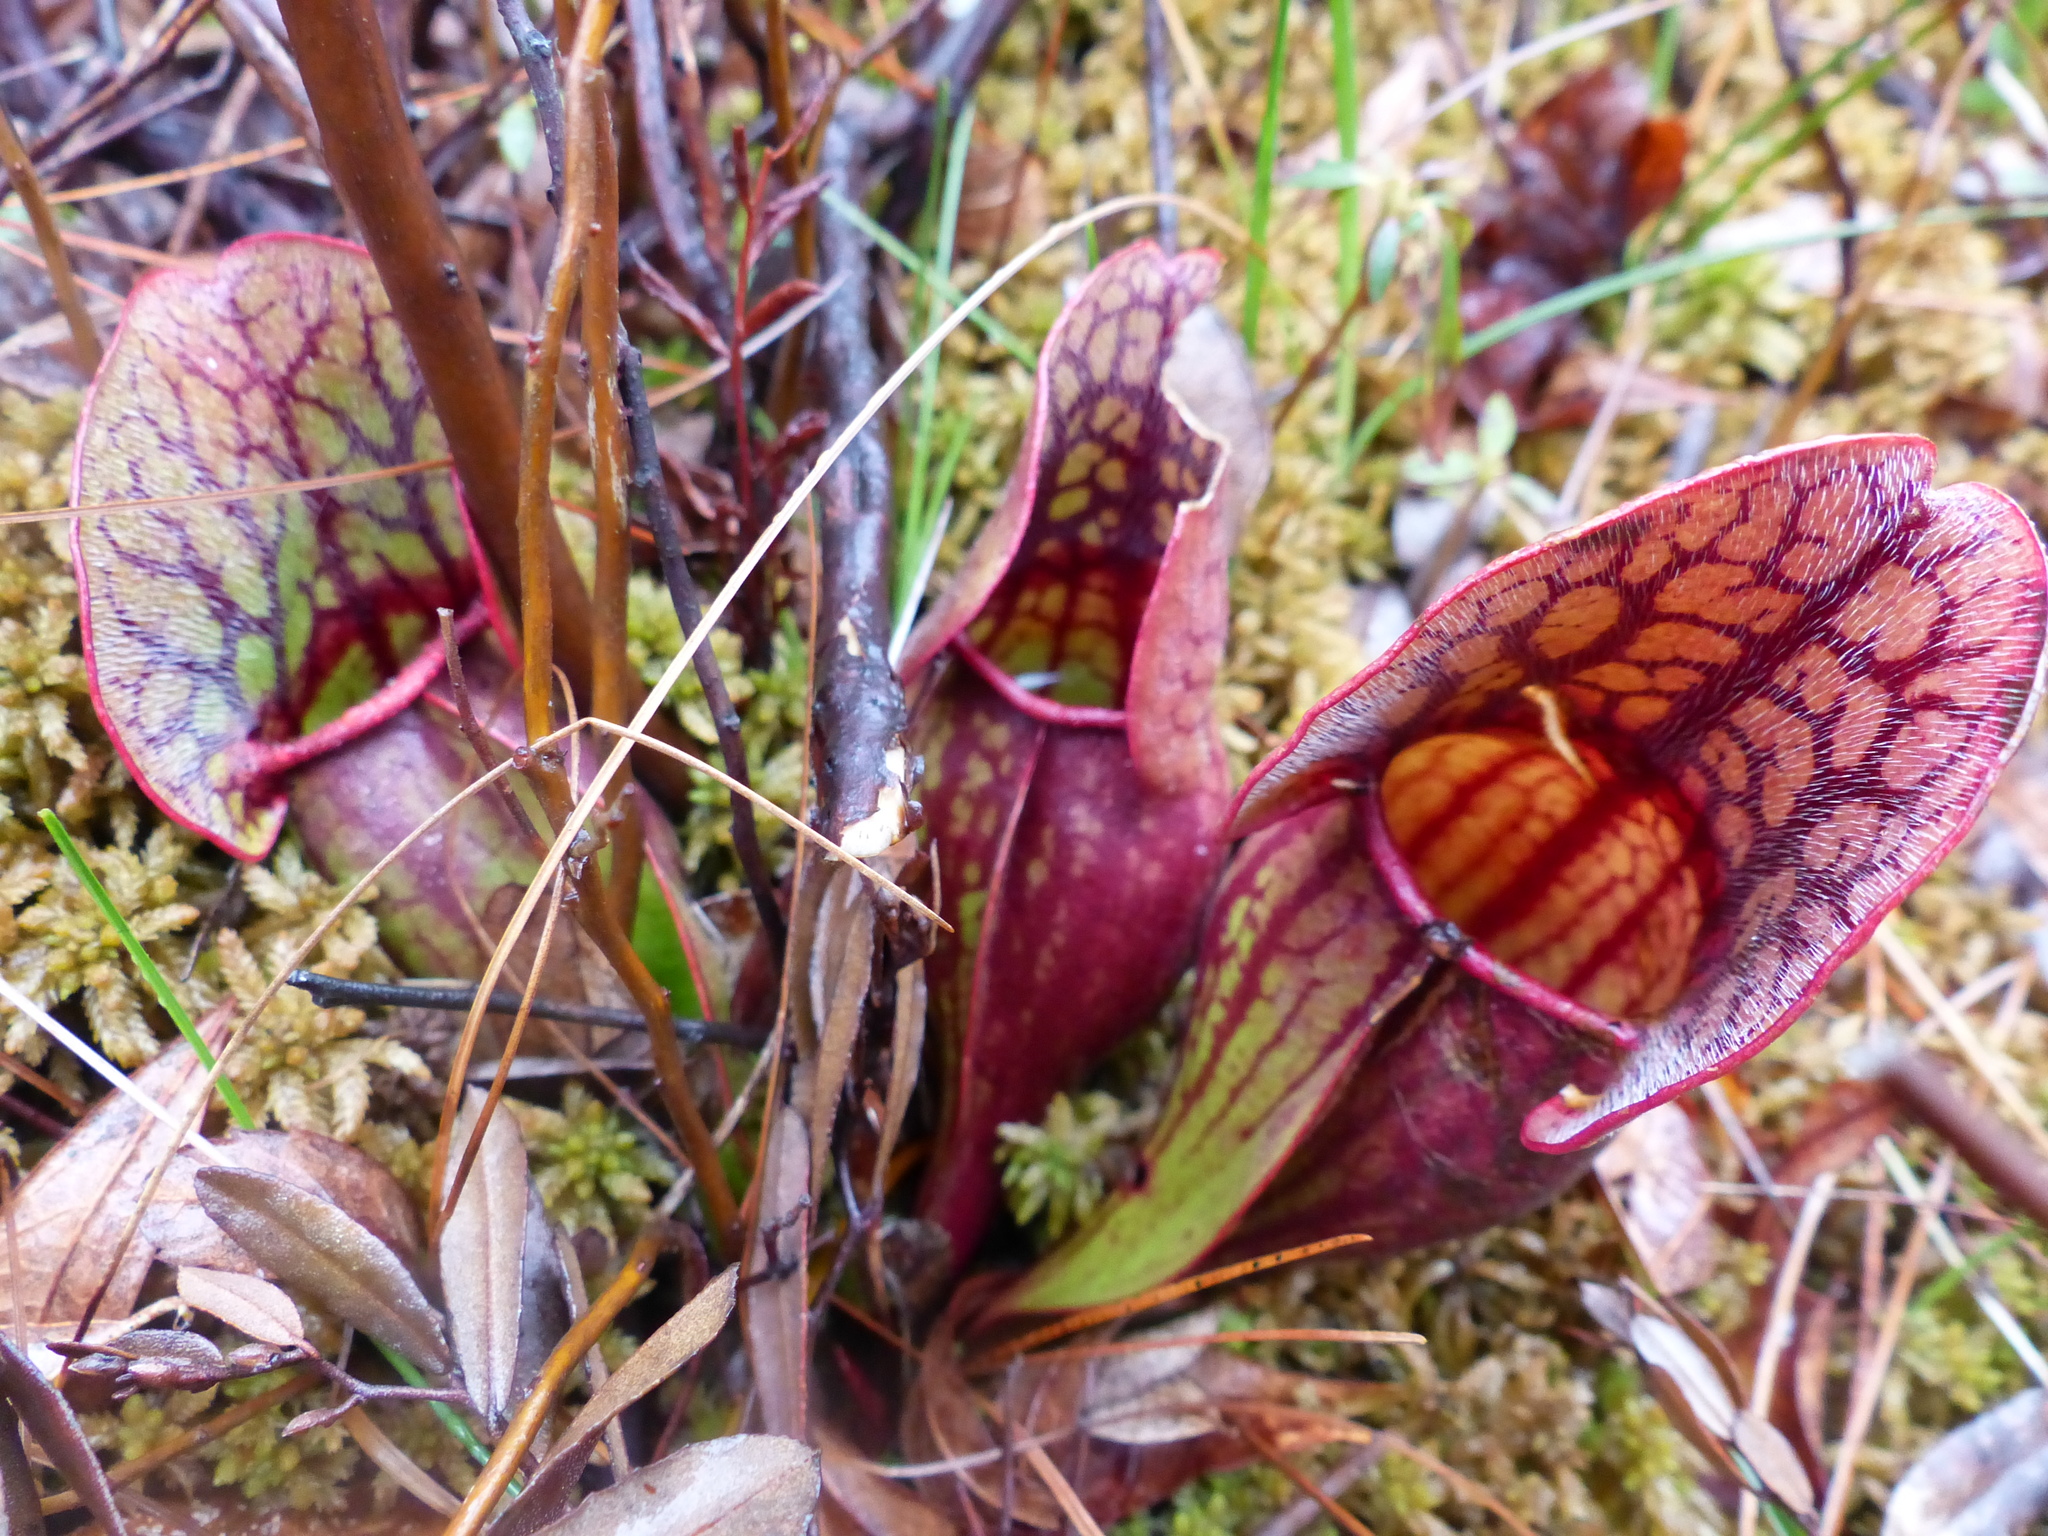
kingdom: Plantae
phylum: Tracheophyta
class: Magnoliopsida
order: Ericales
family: Sarraceniaceae
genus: Sarracenia
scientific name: Sarracenia purpurea
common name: Pitcherplant
